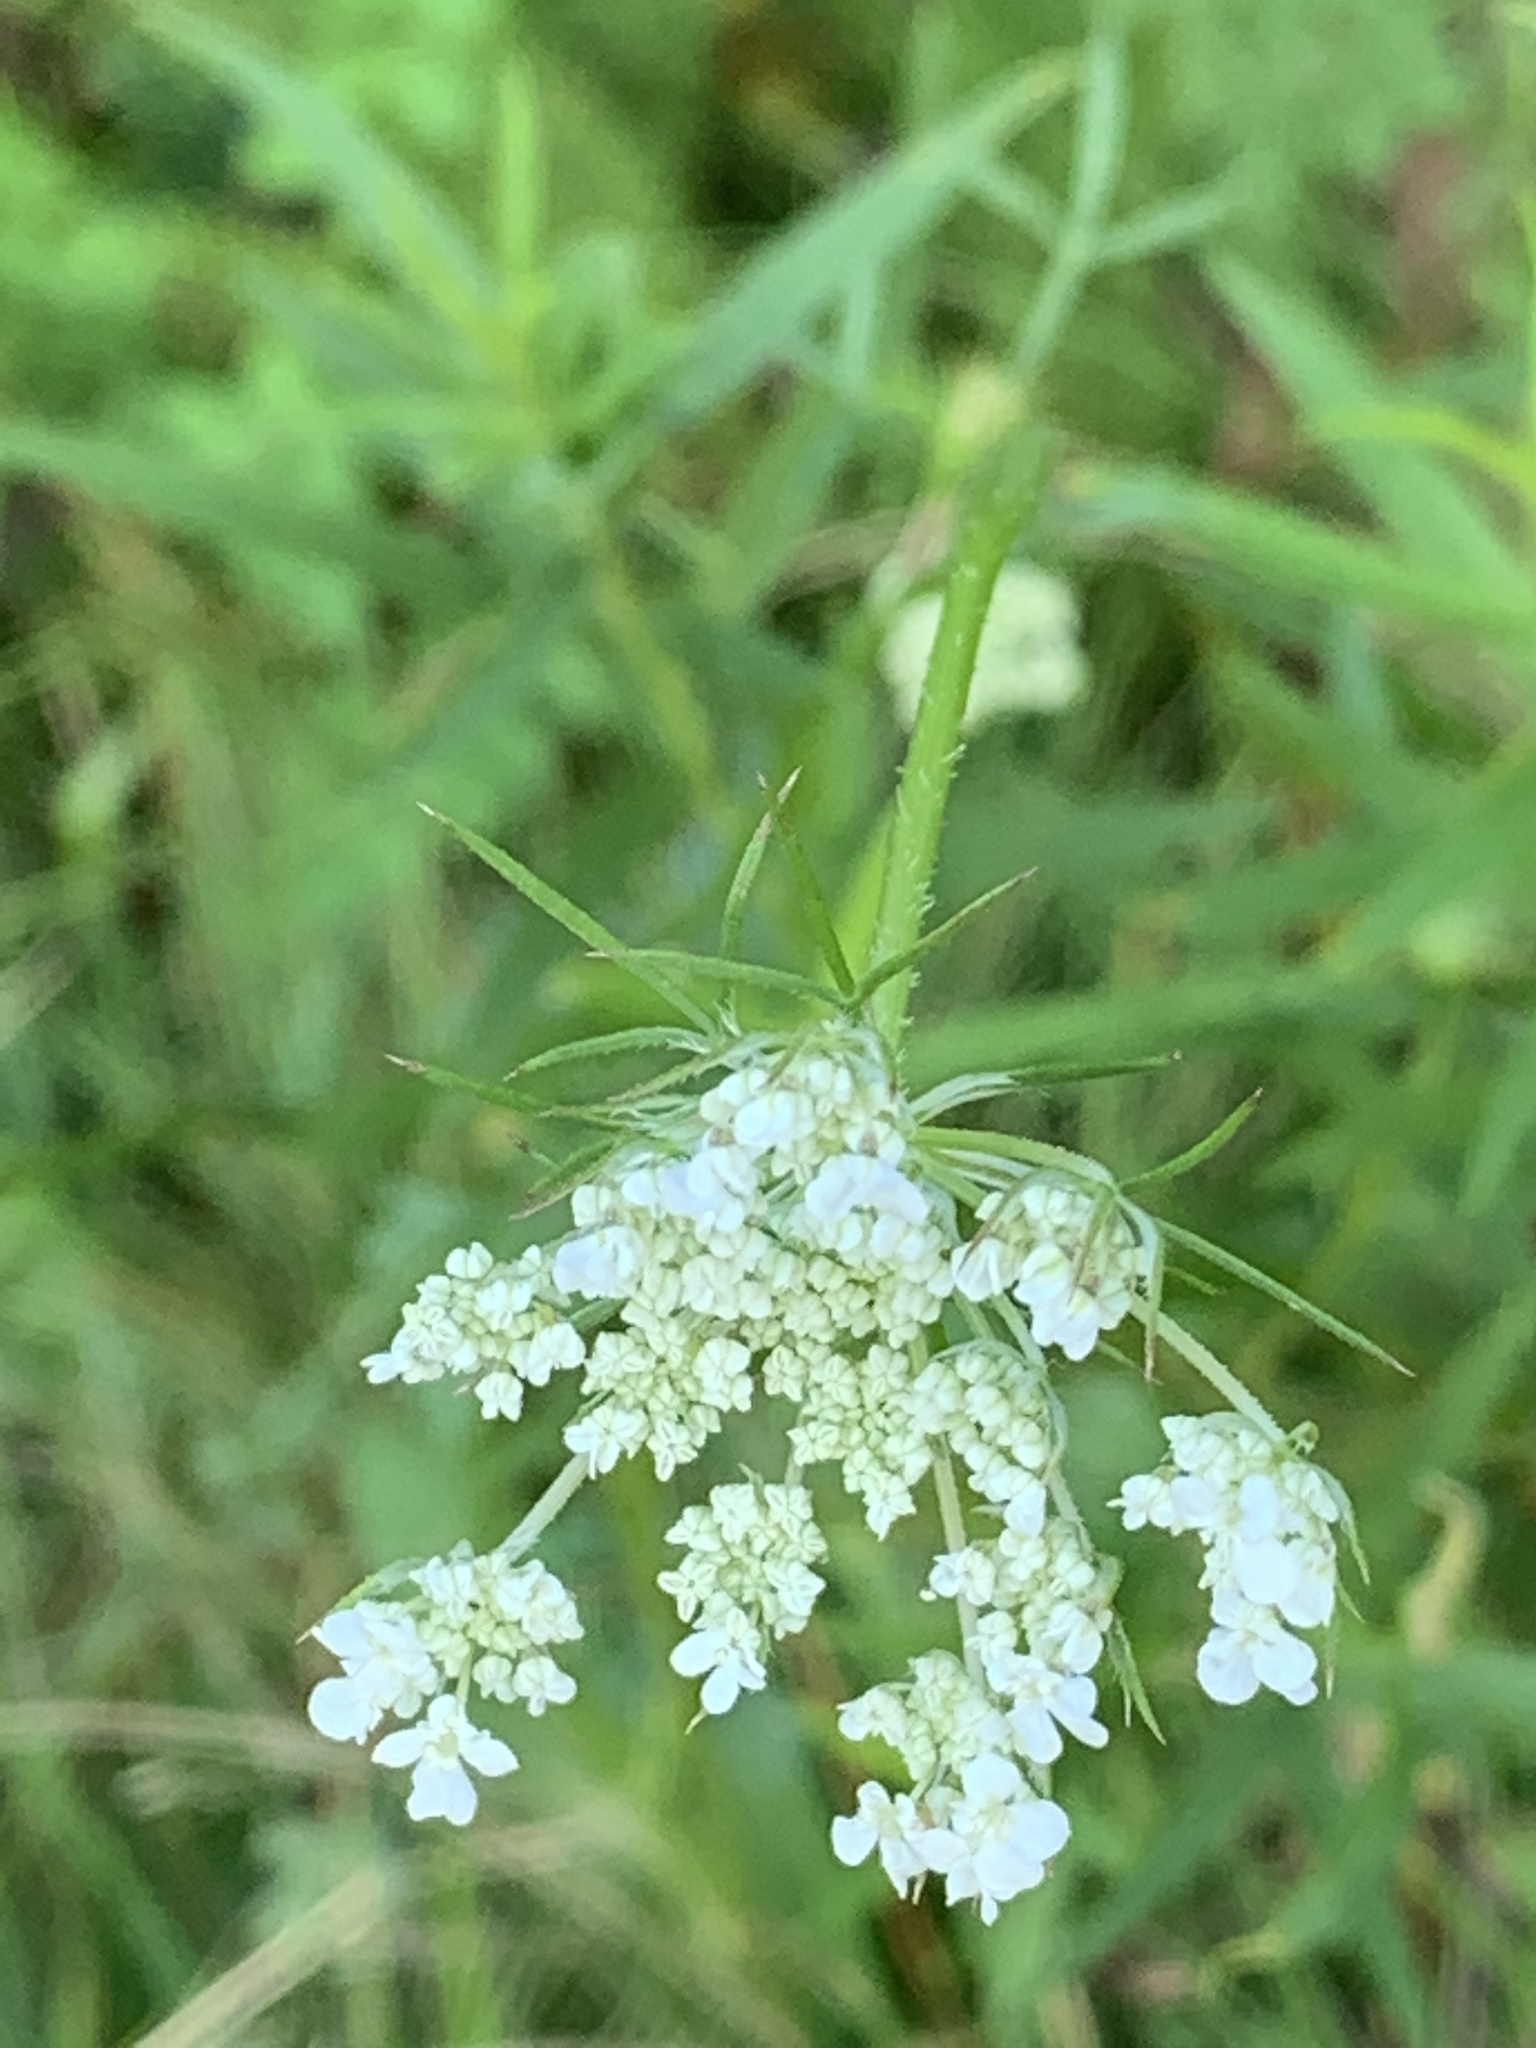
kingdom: Plantae
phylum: Tracheophyta
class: Magnoliopsida
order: Apiales
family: Apiaceae
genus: Daucus
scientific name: Daucus carota
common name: Wild carrot
